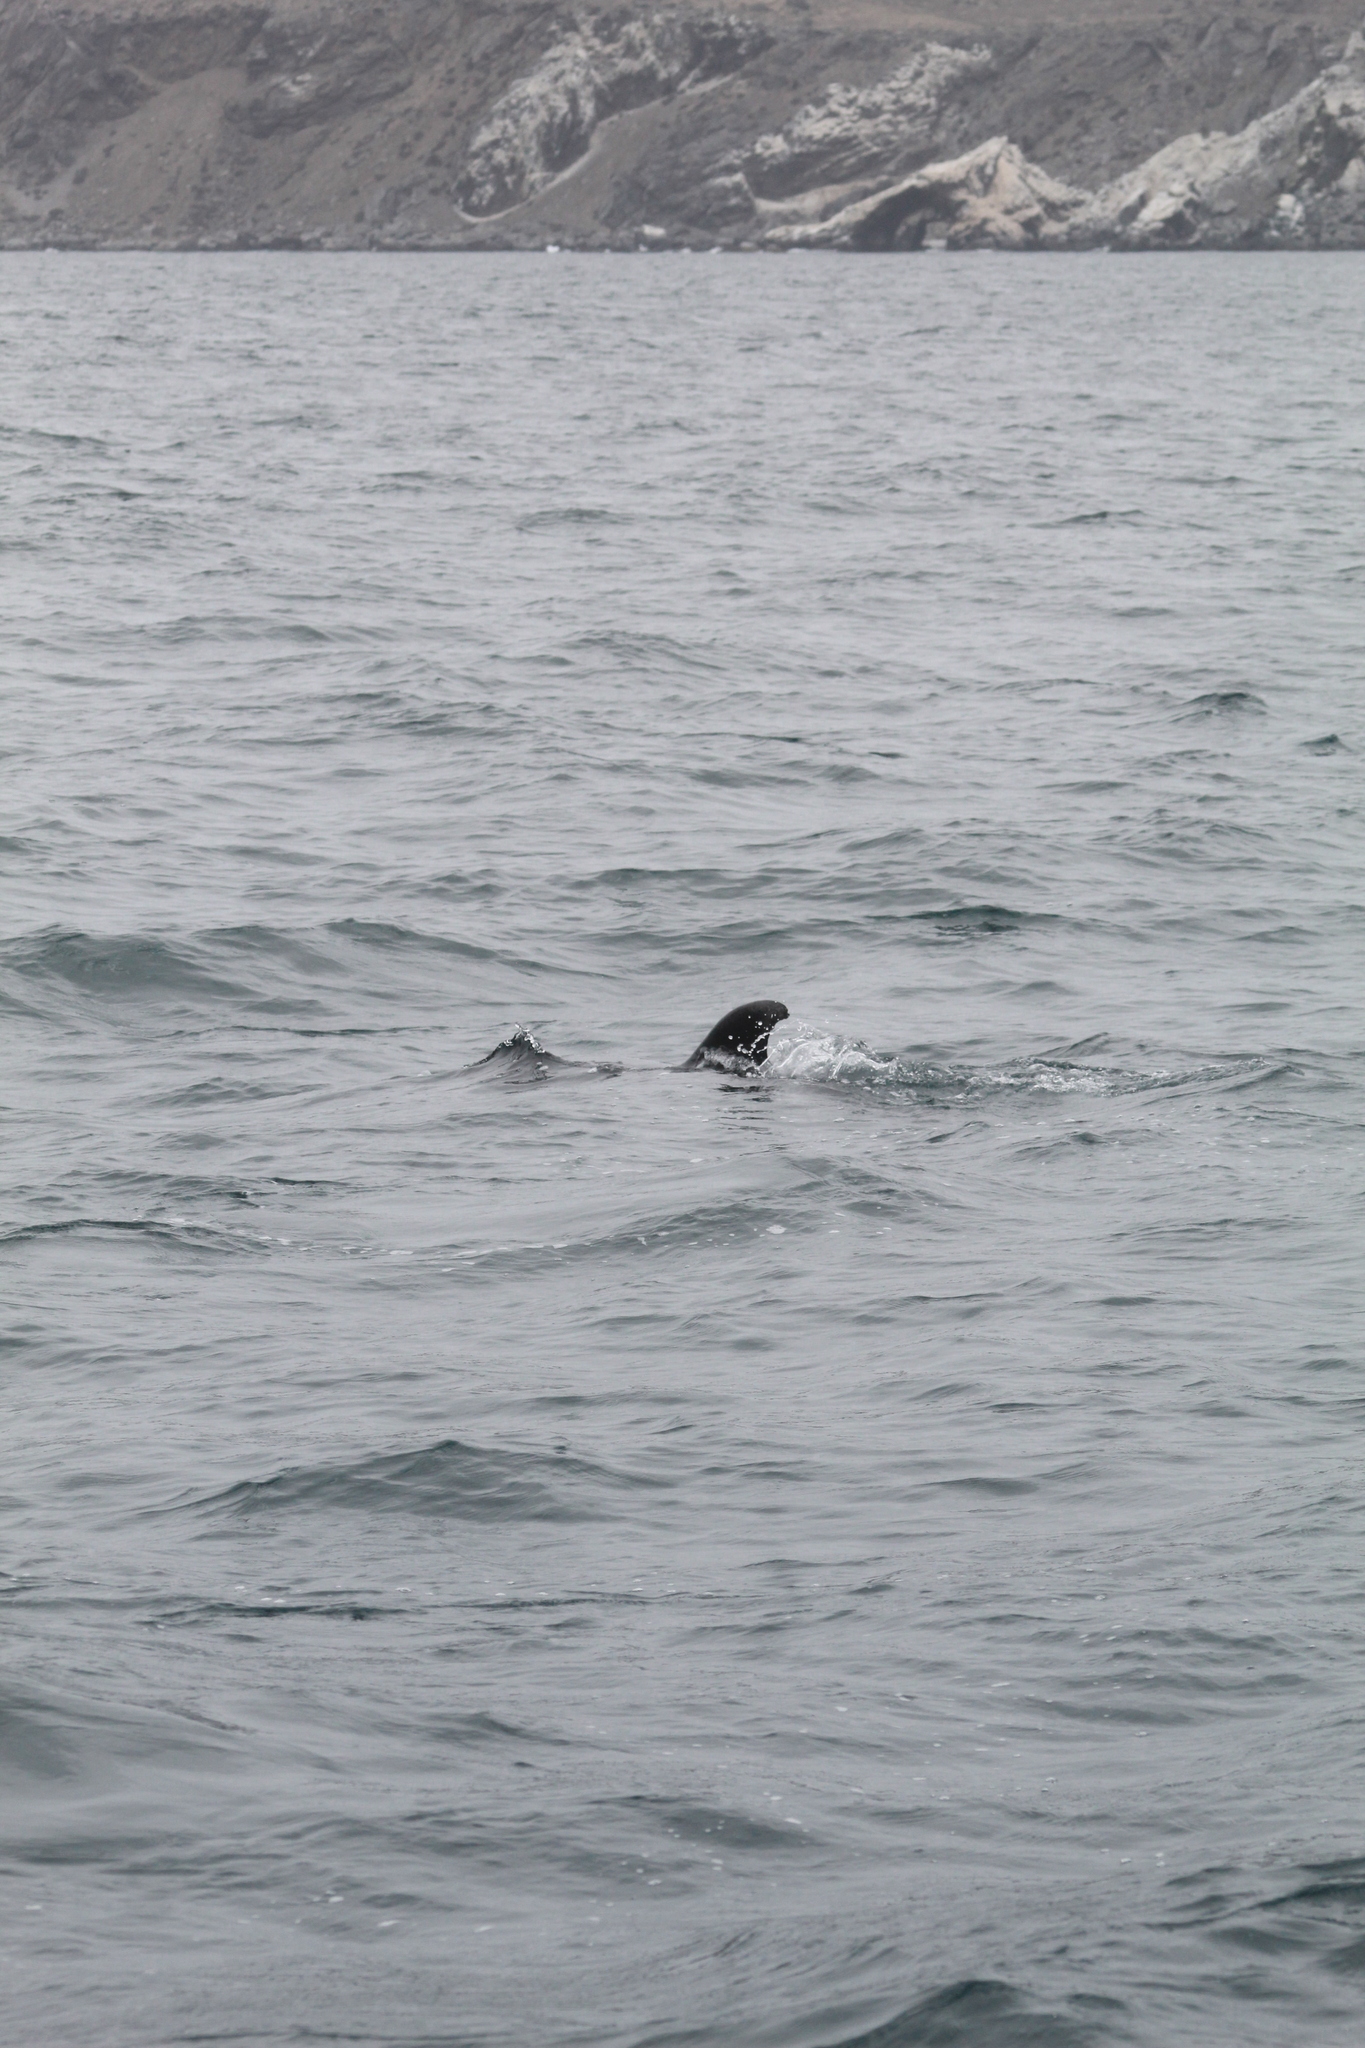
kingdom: Animalia
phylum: Chordata
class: Mammalia
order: Cetacea
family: Delphinidae
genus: Tursiops
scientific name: Tursiops truncatus
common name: Bottlenose dolphin
